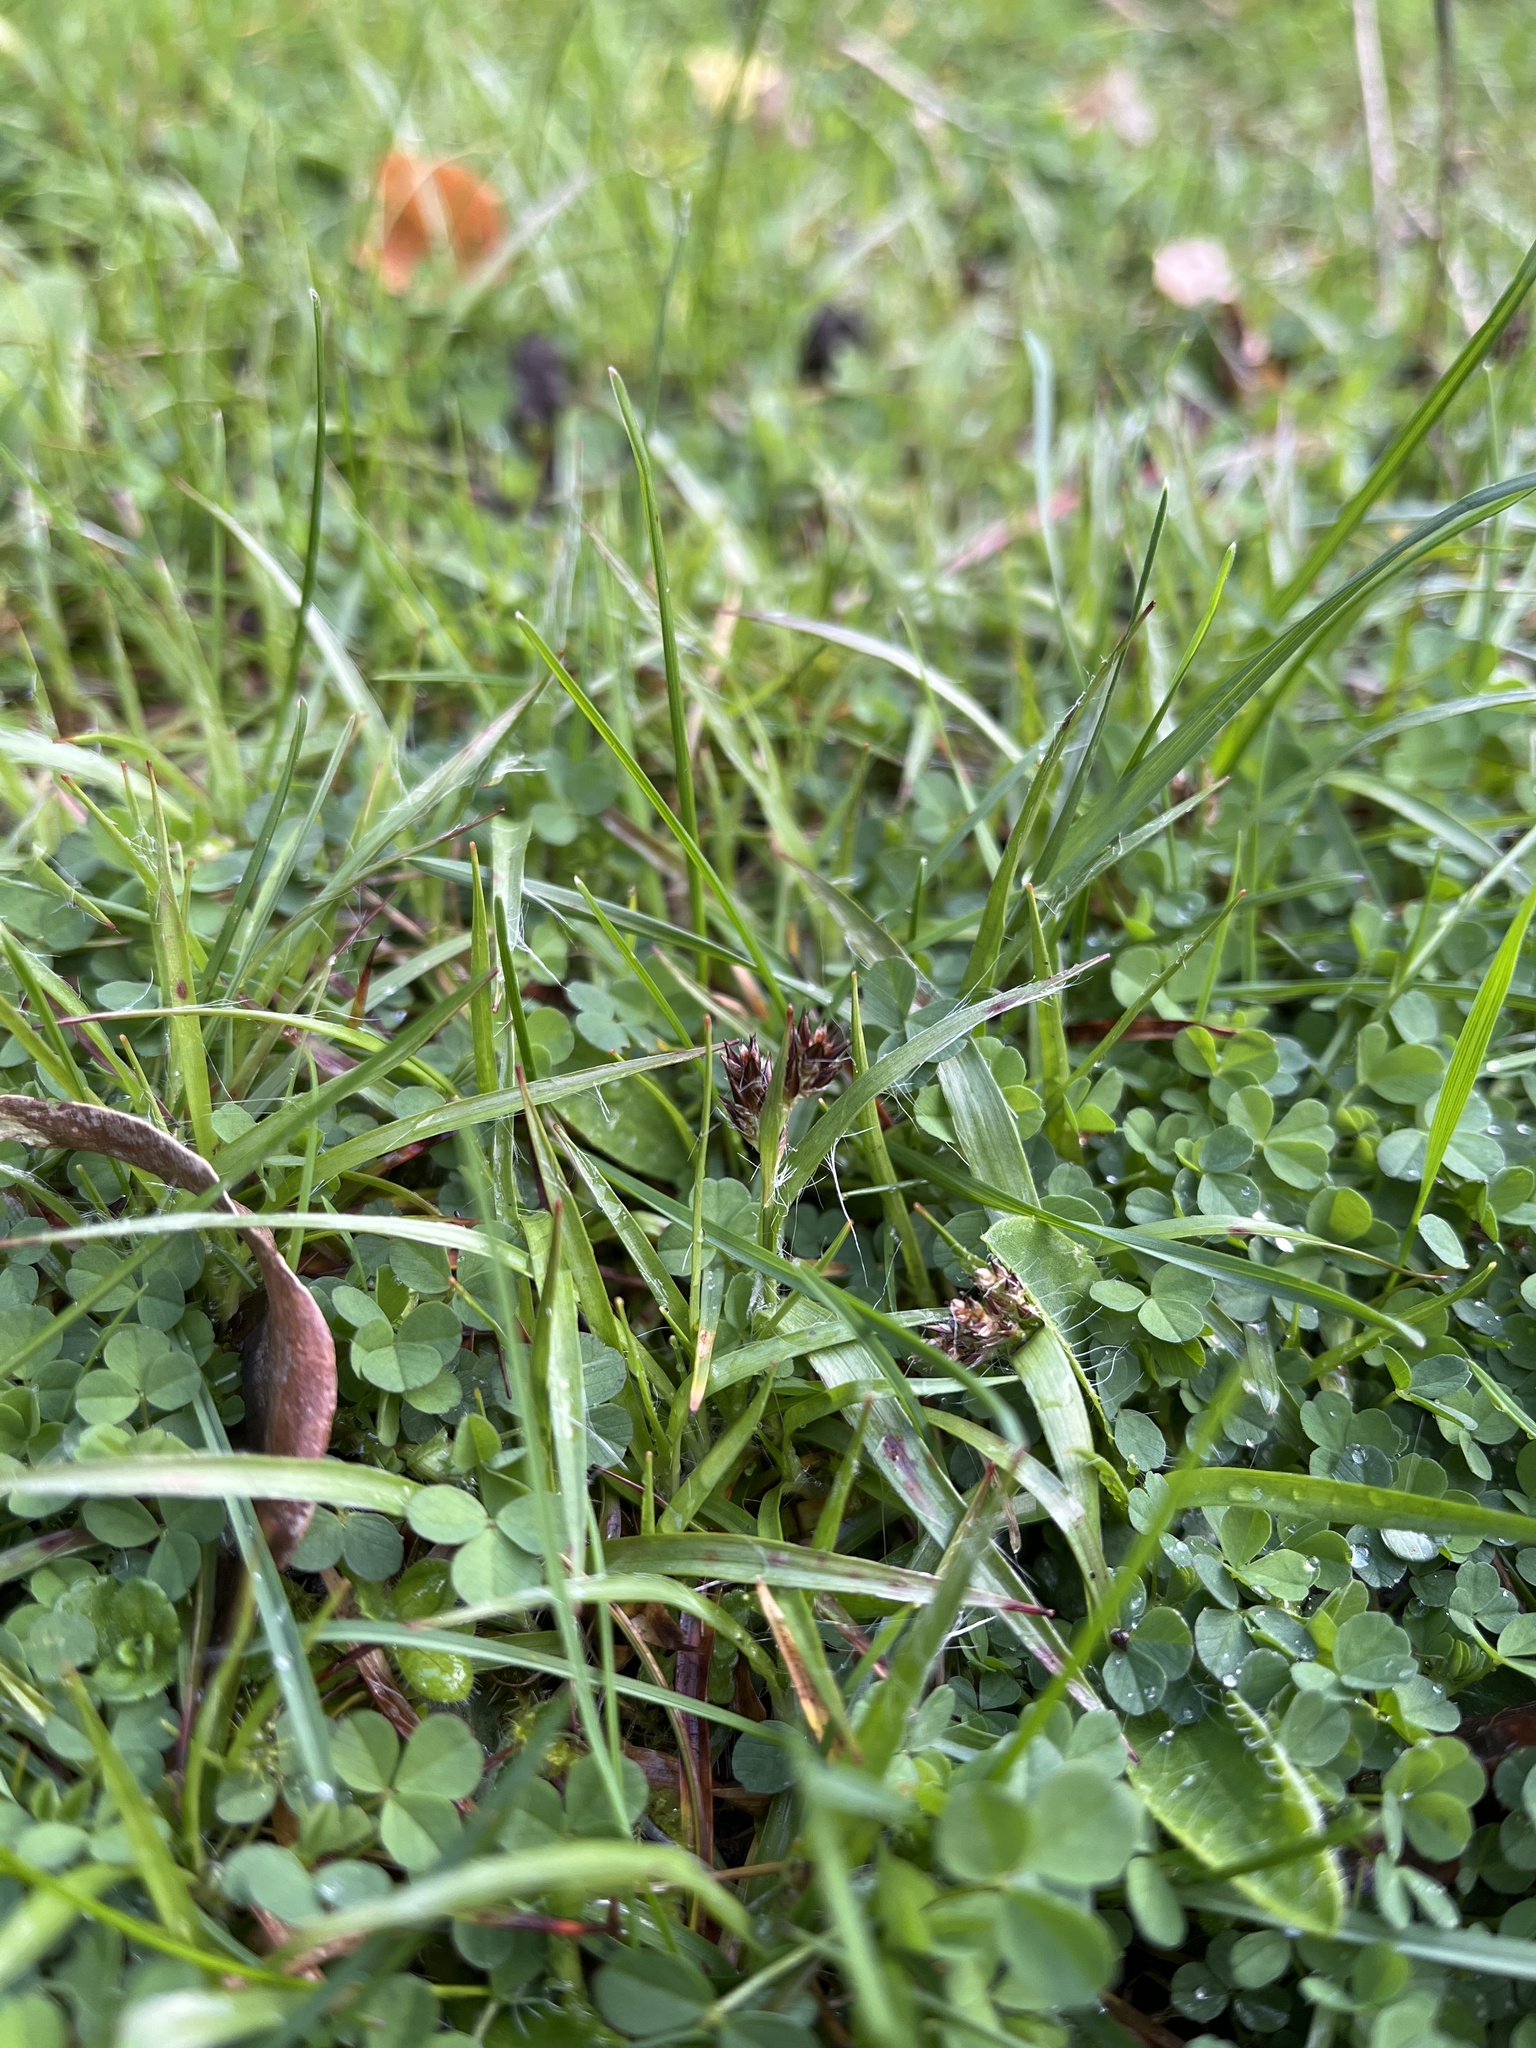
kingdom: Plantae
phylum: Tracheophyta
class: Liliopsida
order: Poales
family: Juncaceae
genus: Luzula
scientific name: Luzula campestris
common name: Field wood-rush
